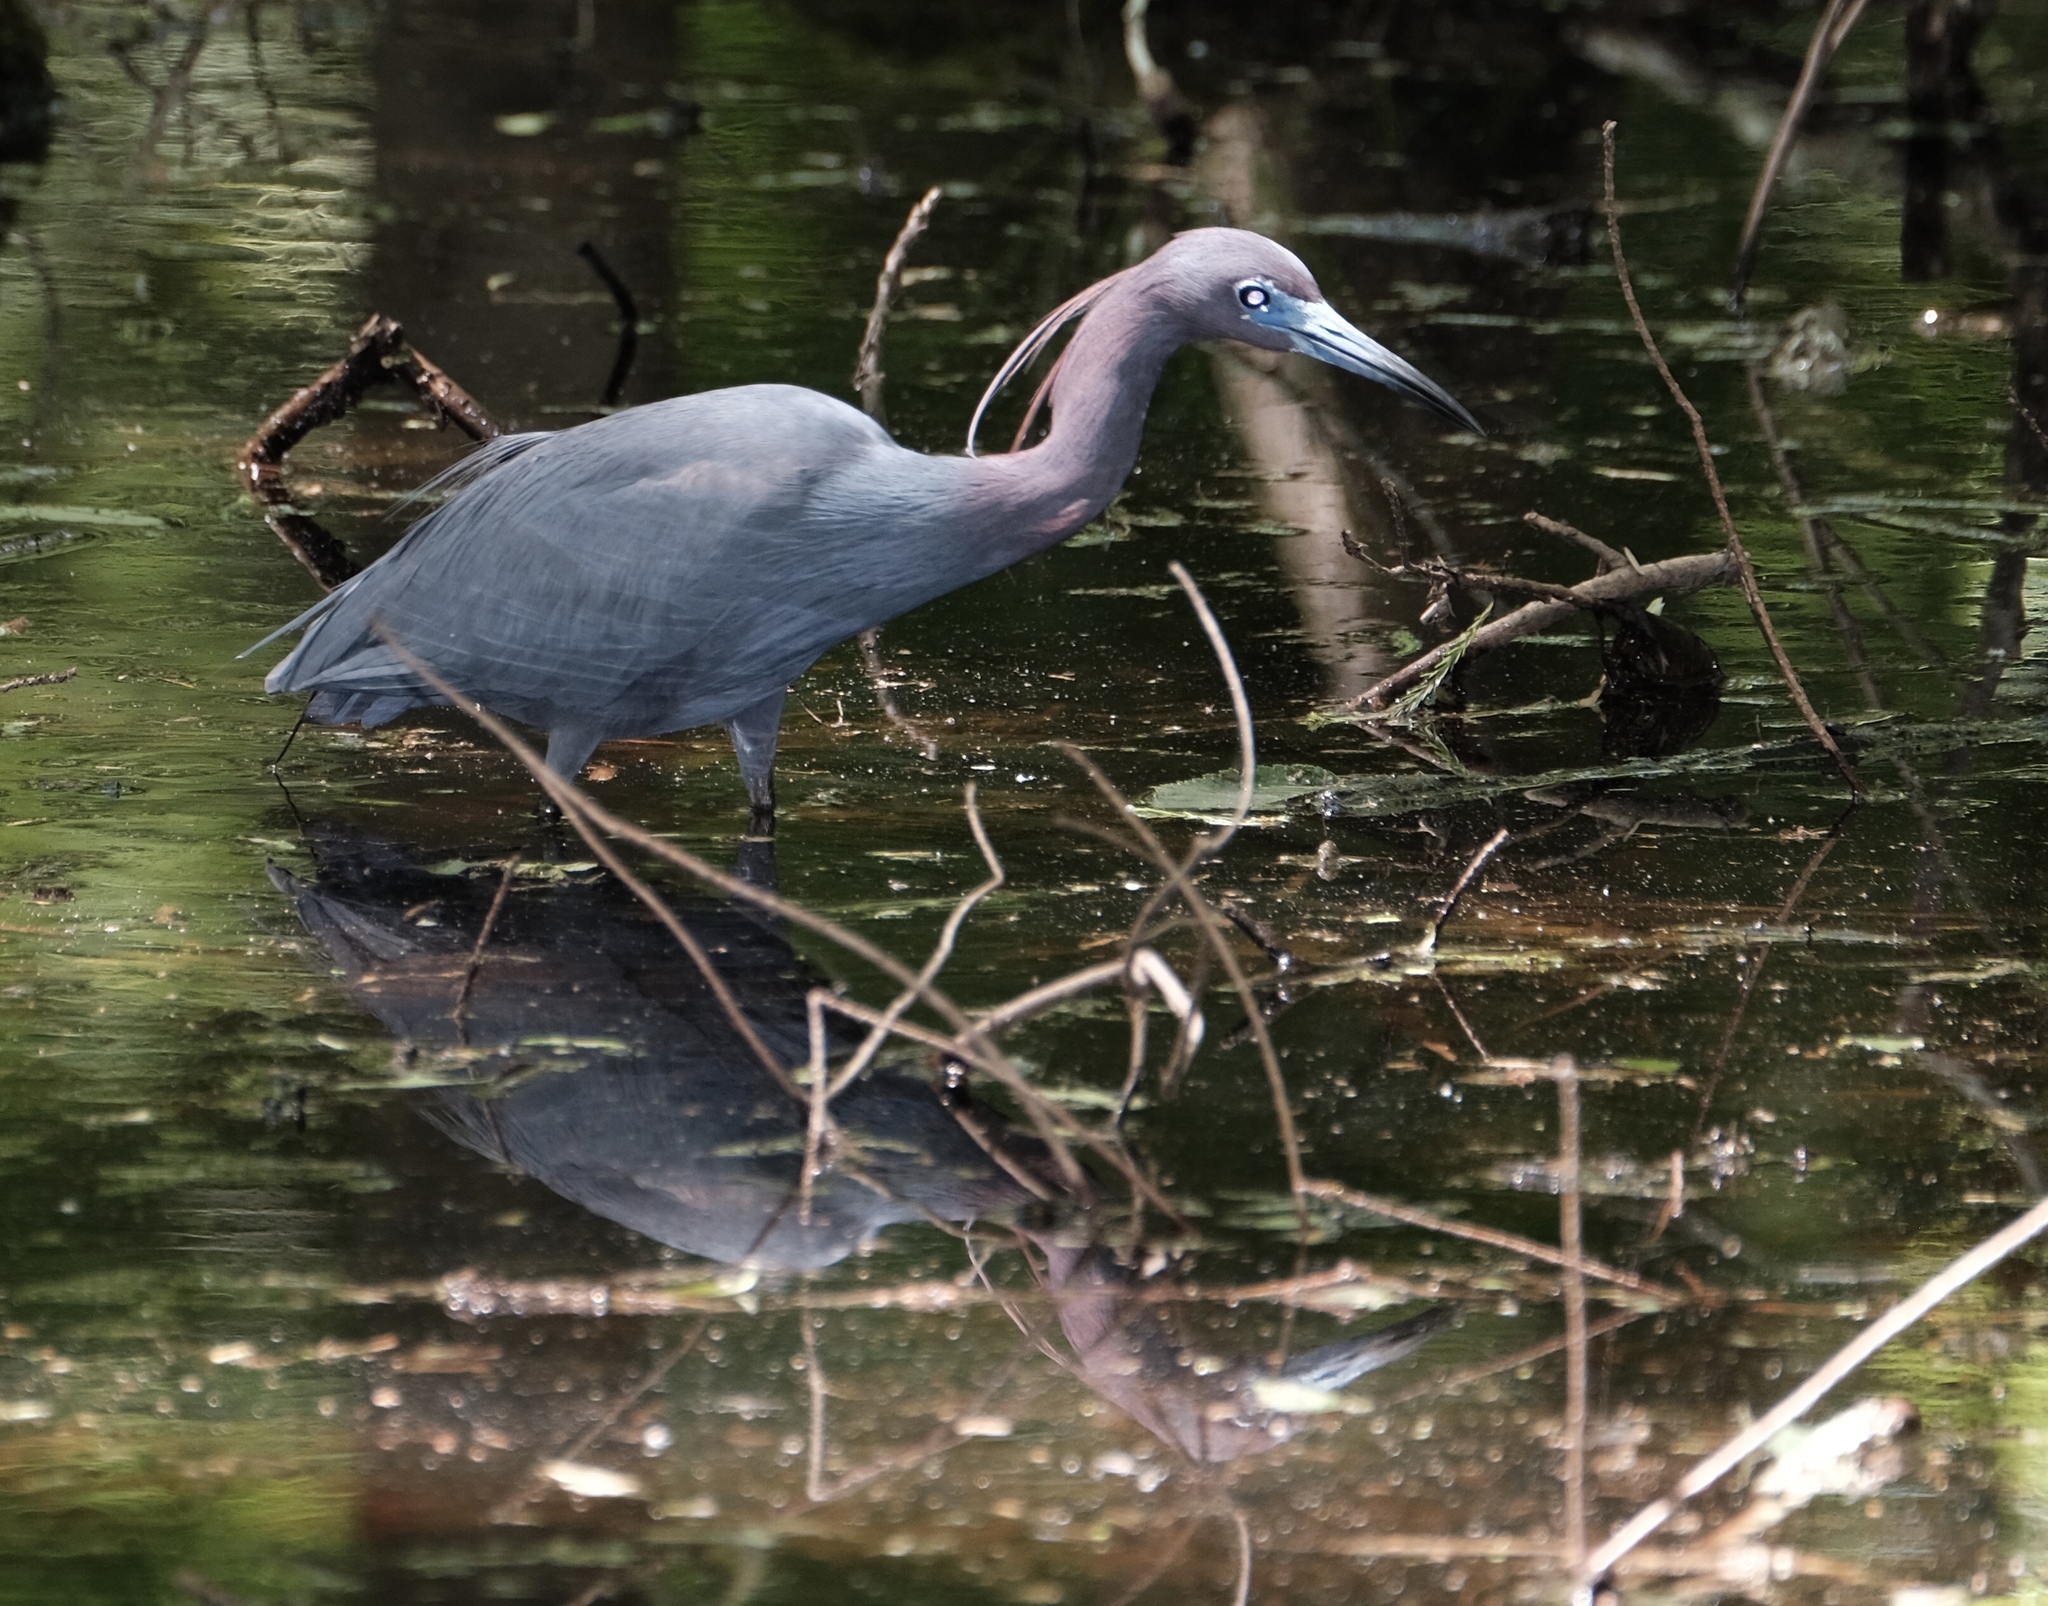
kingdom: Animalia
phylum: Chordata
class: Aves
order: Pelecaniformes
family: Ardeidae
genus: Egretta
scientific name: Egretta caerulea
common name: Little blue heron
